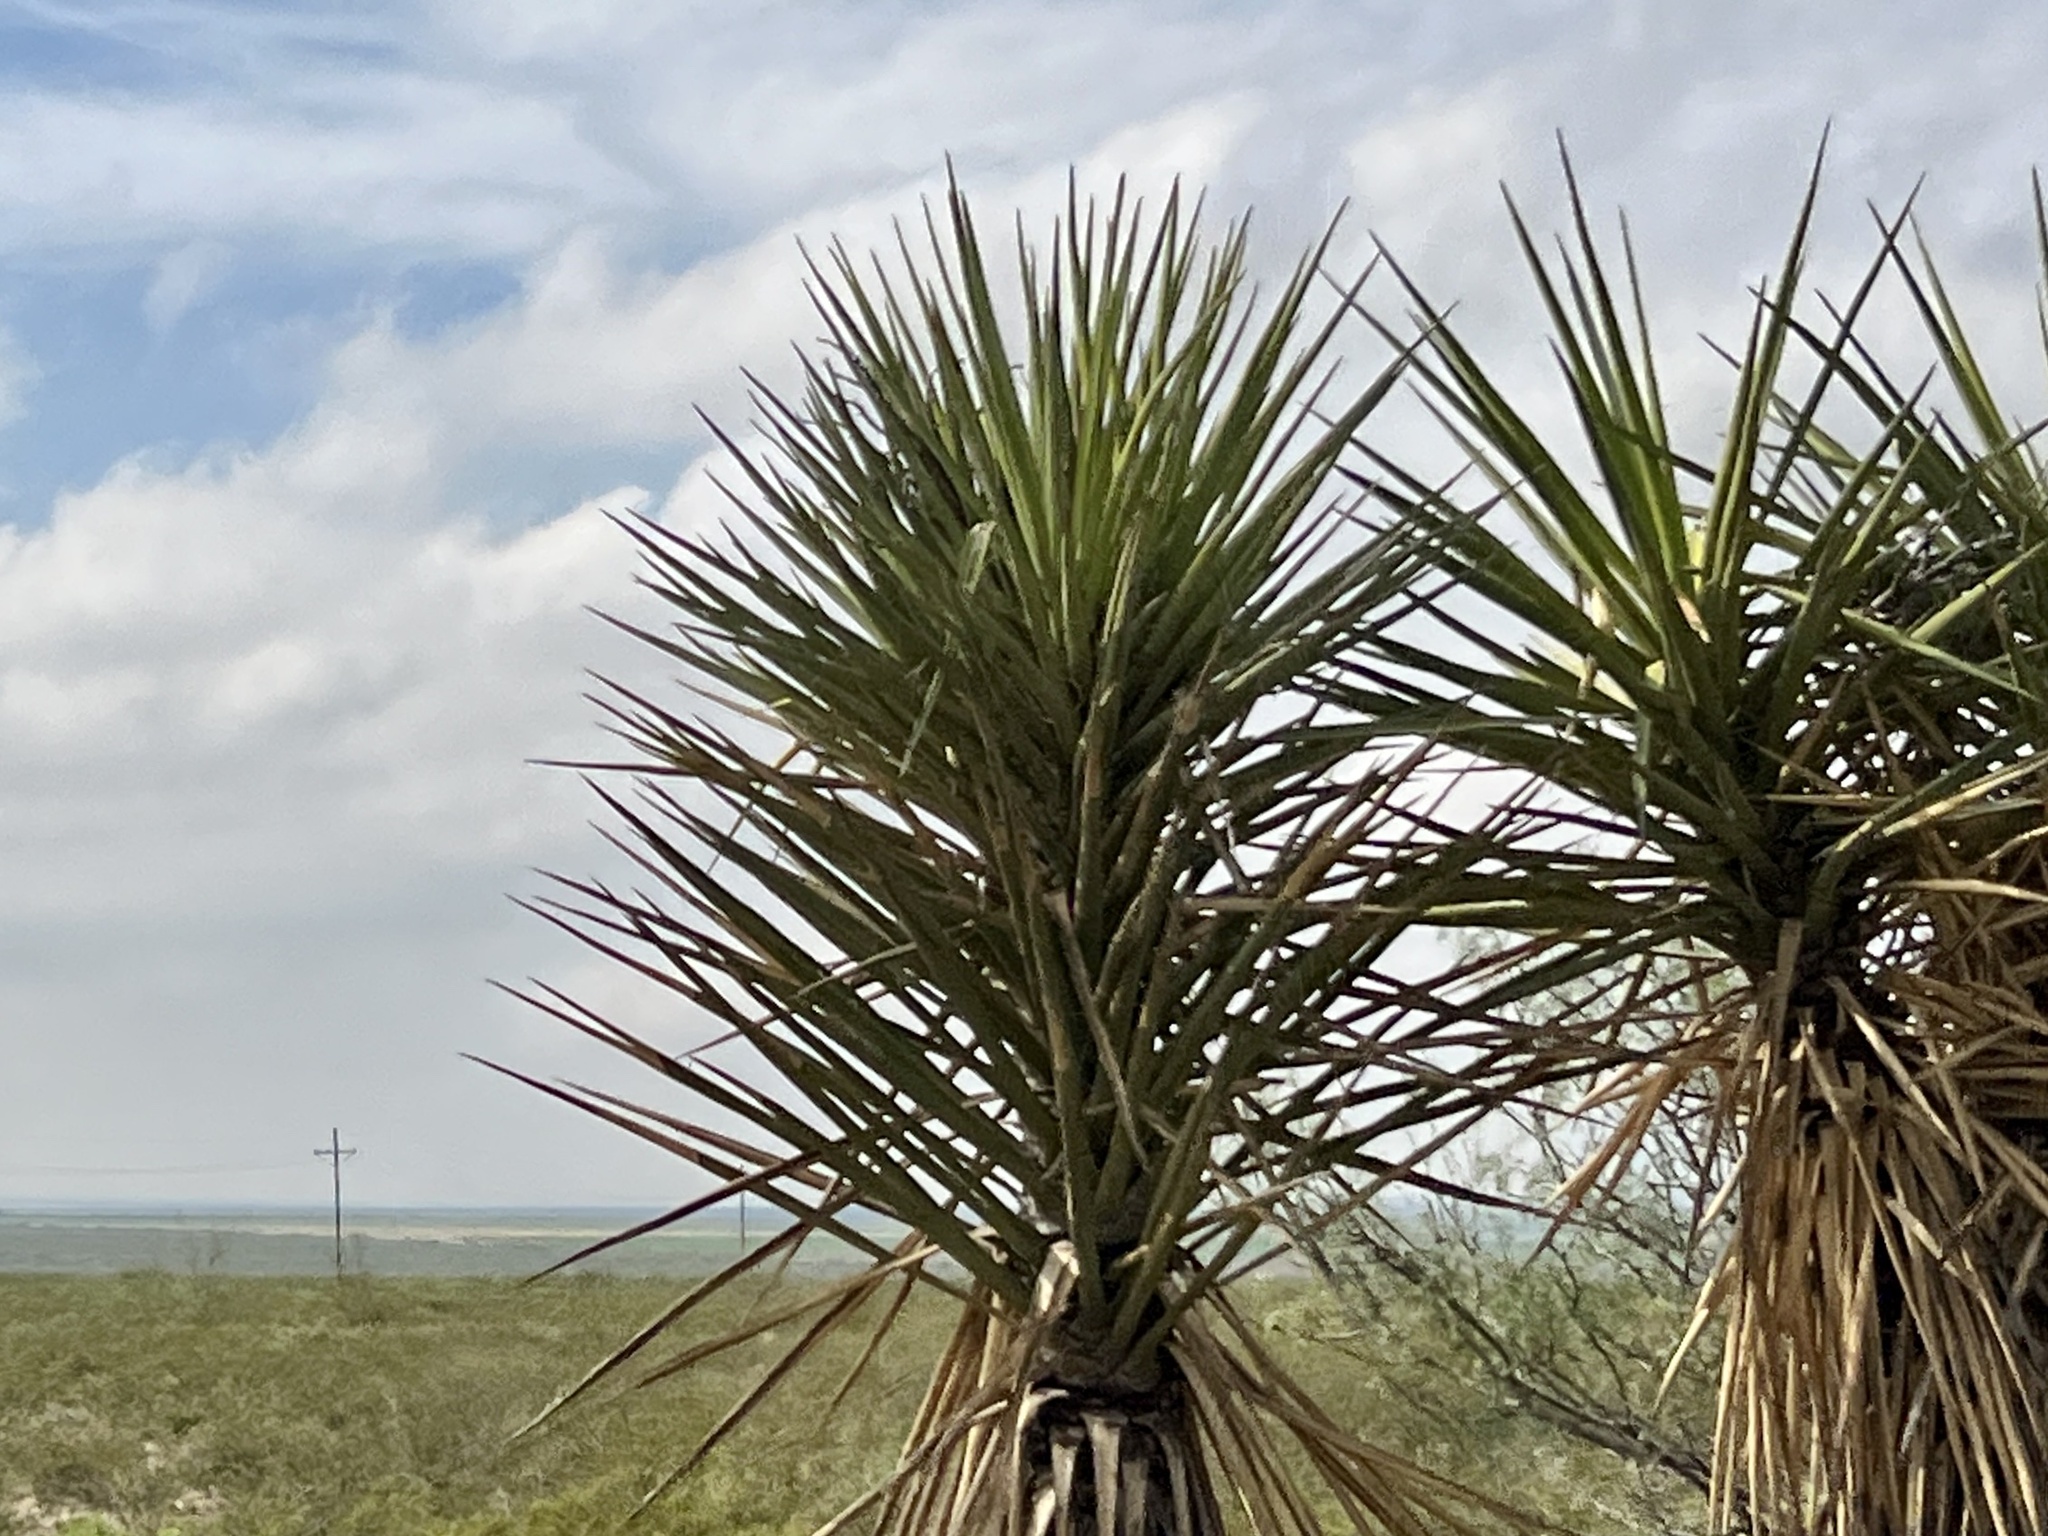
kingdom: Plantae
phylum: Tracheophyta
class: Liliopsida
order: Asparagales
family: Asparagaceae
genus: Yucca
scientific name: Yucca treculiana
